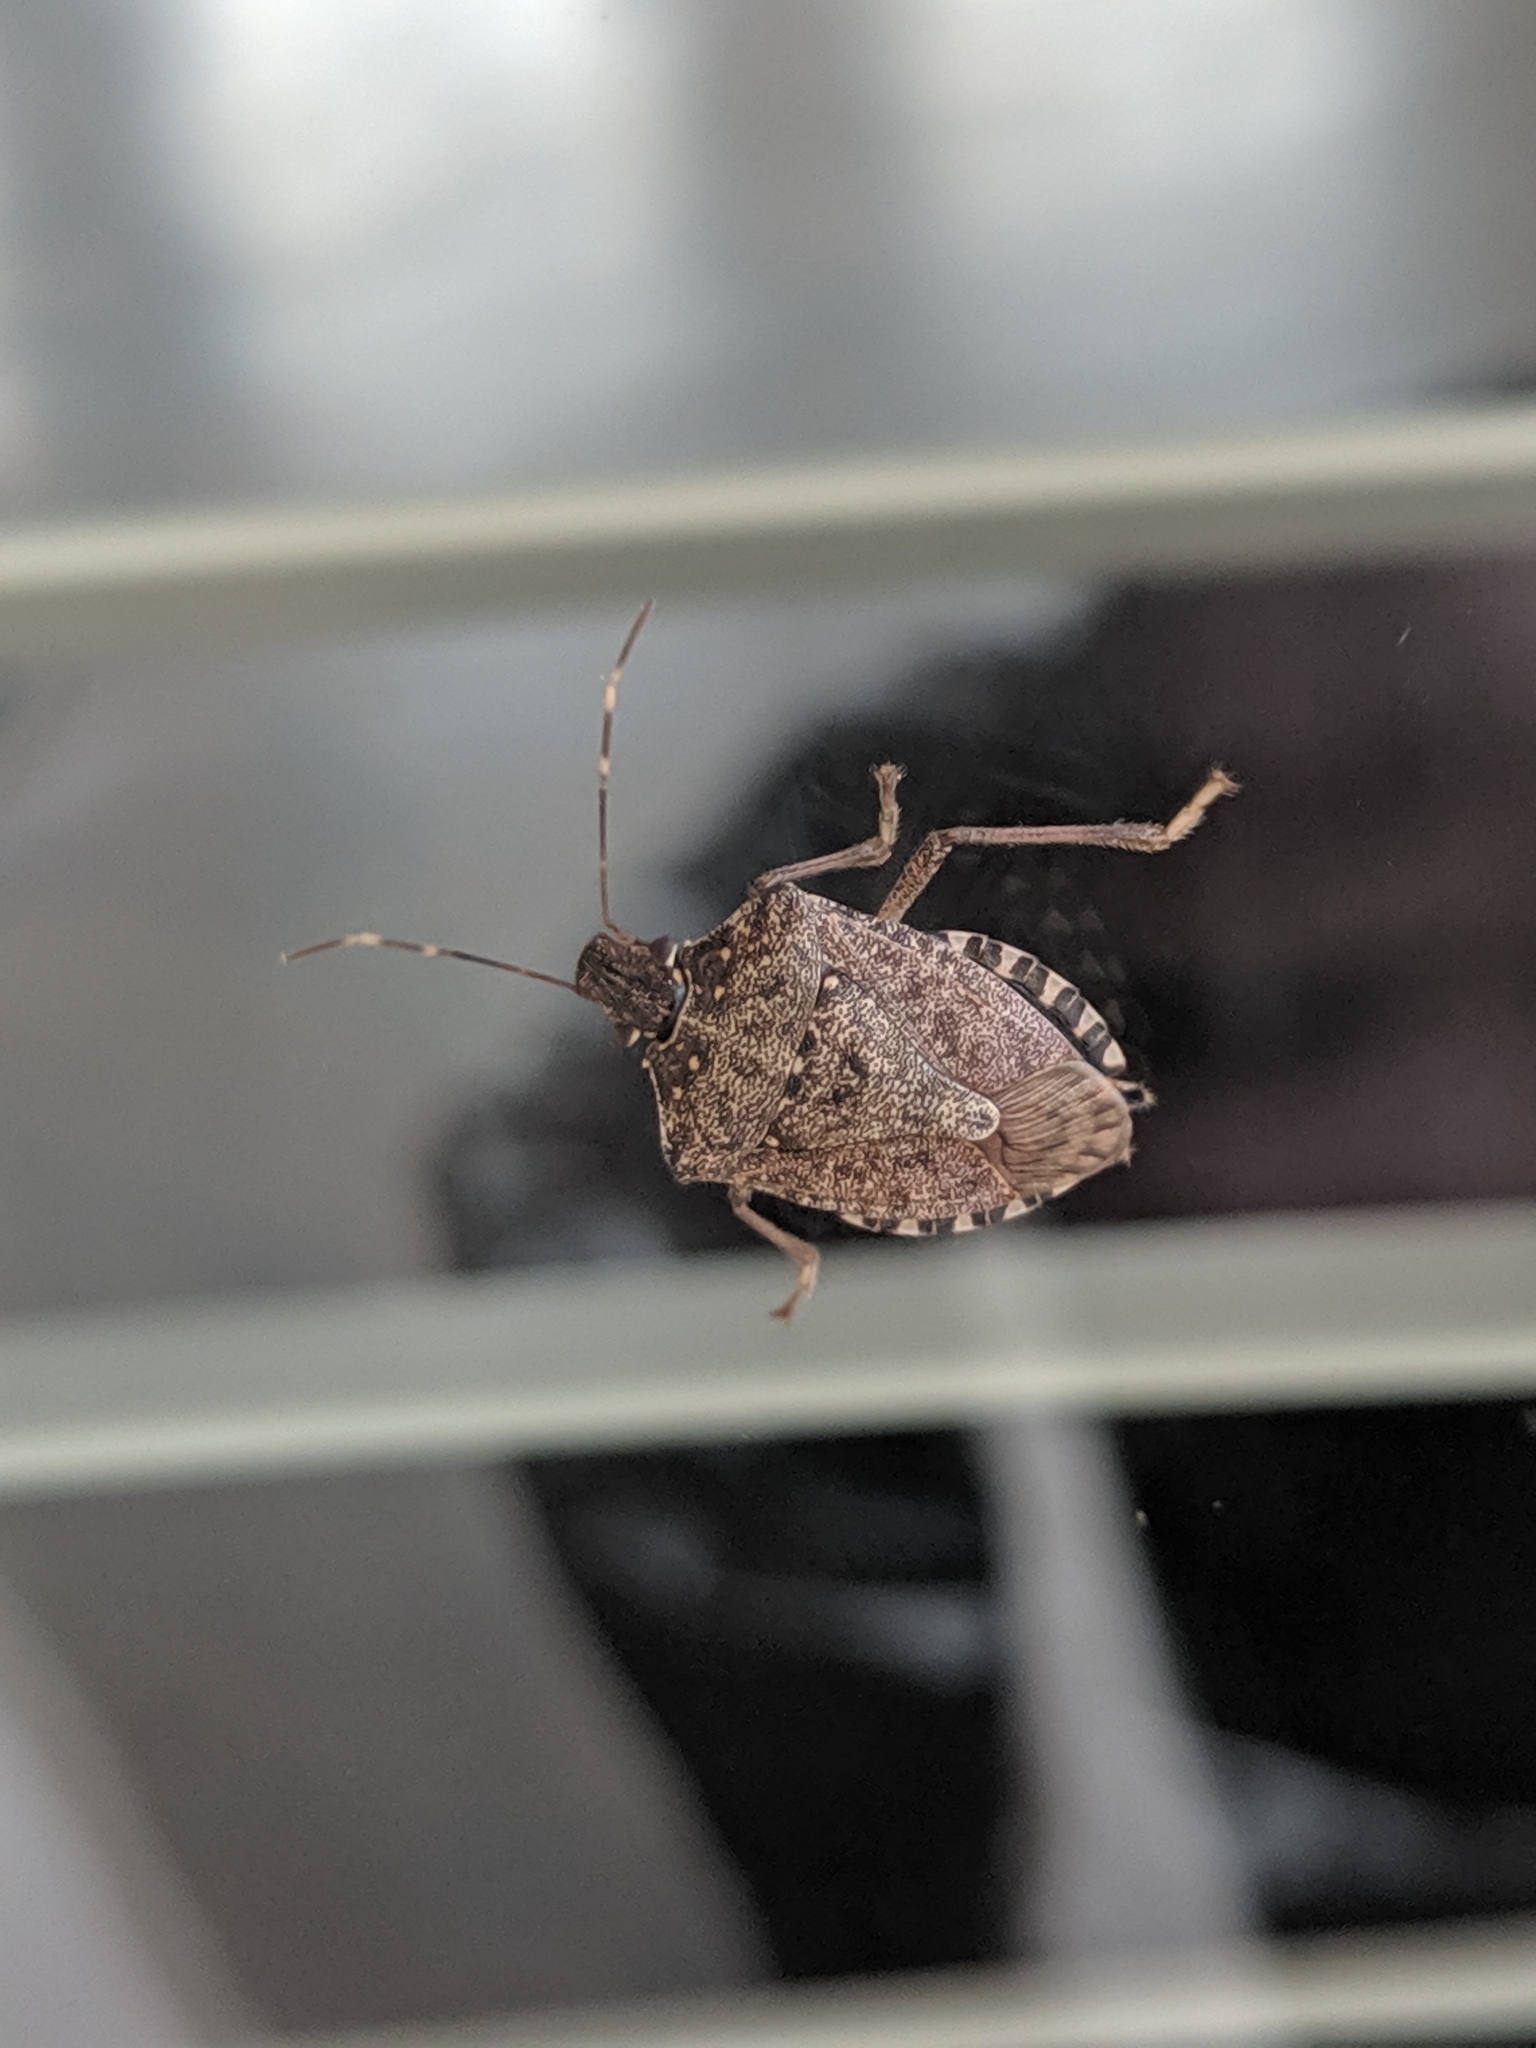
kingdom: Animalia
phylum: Arthropoda
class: Insecta
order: Hemiptera
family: Pentatomidae
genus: Halyomorpha
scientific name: Halyomorpha halys
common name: Brown marmorated stink bug
